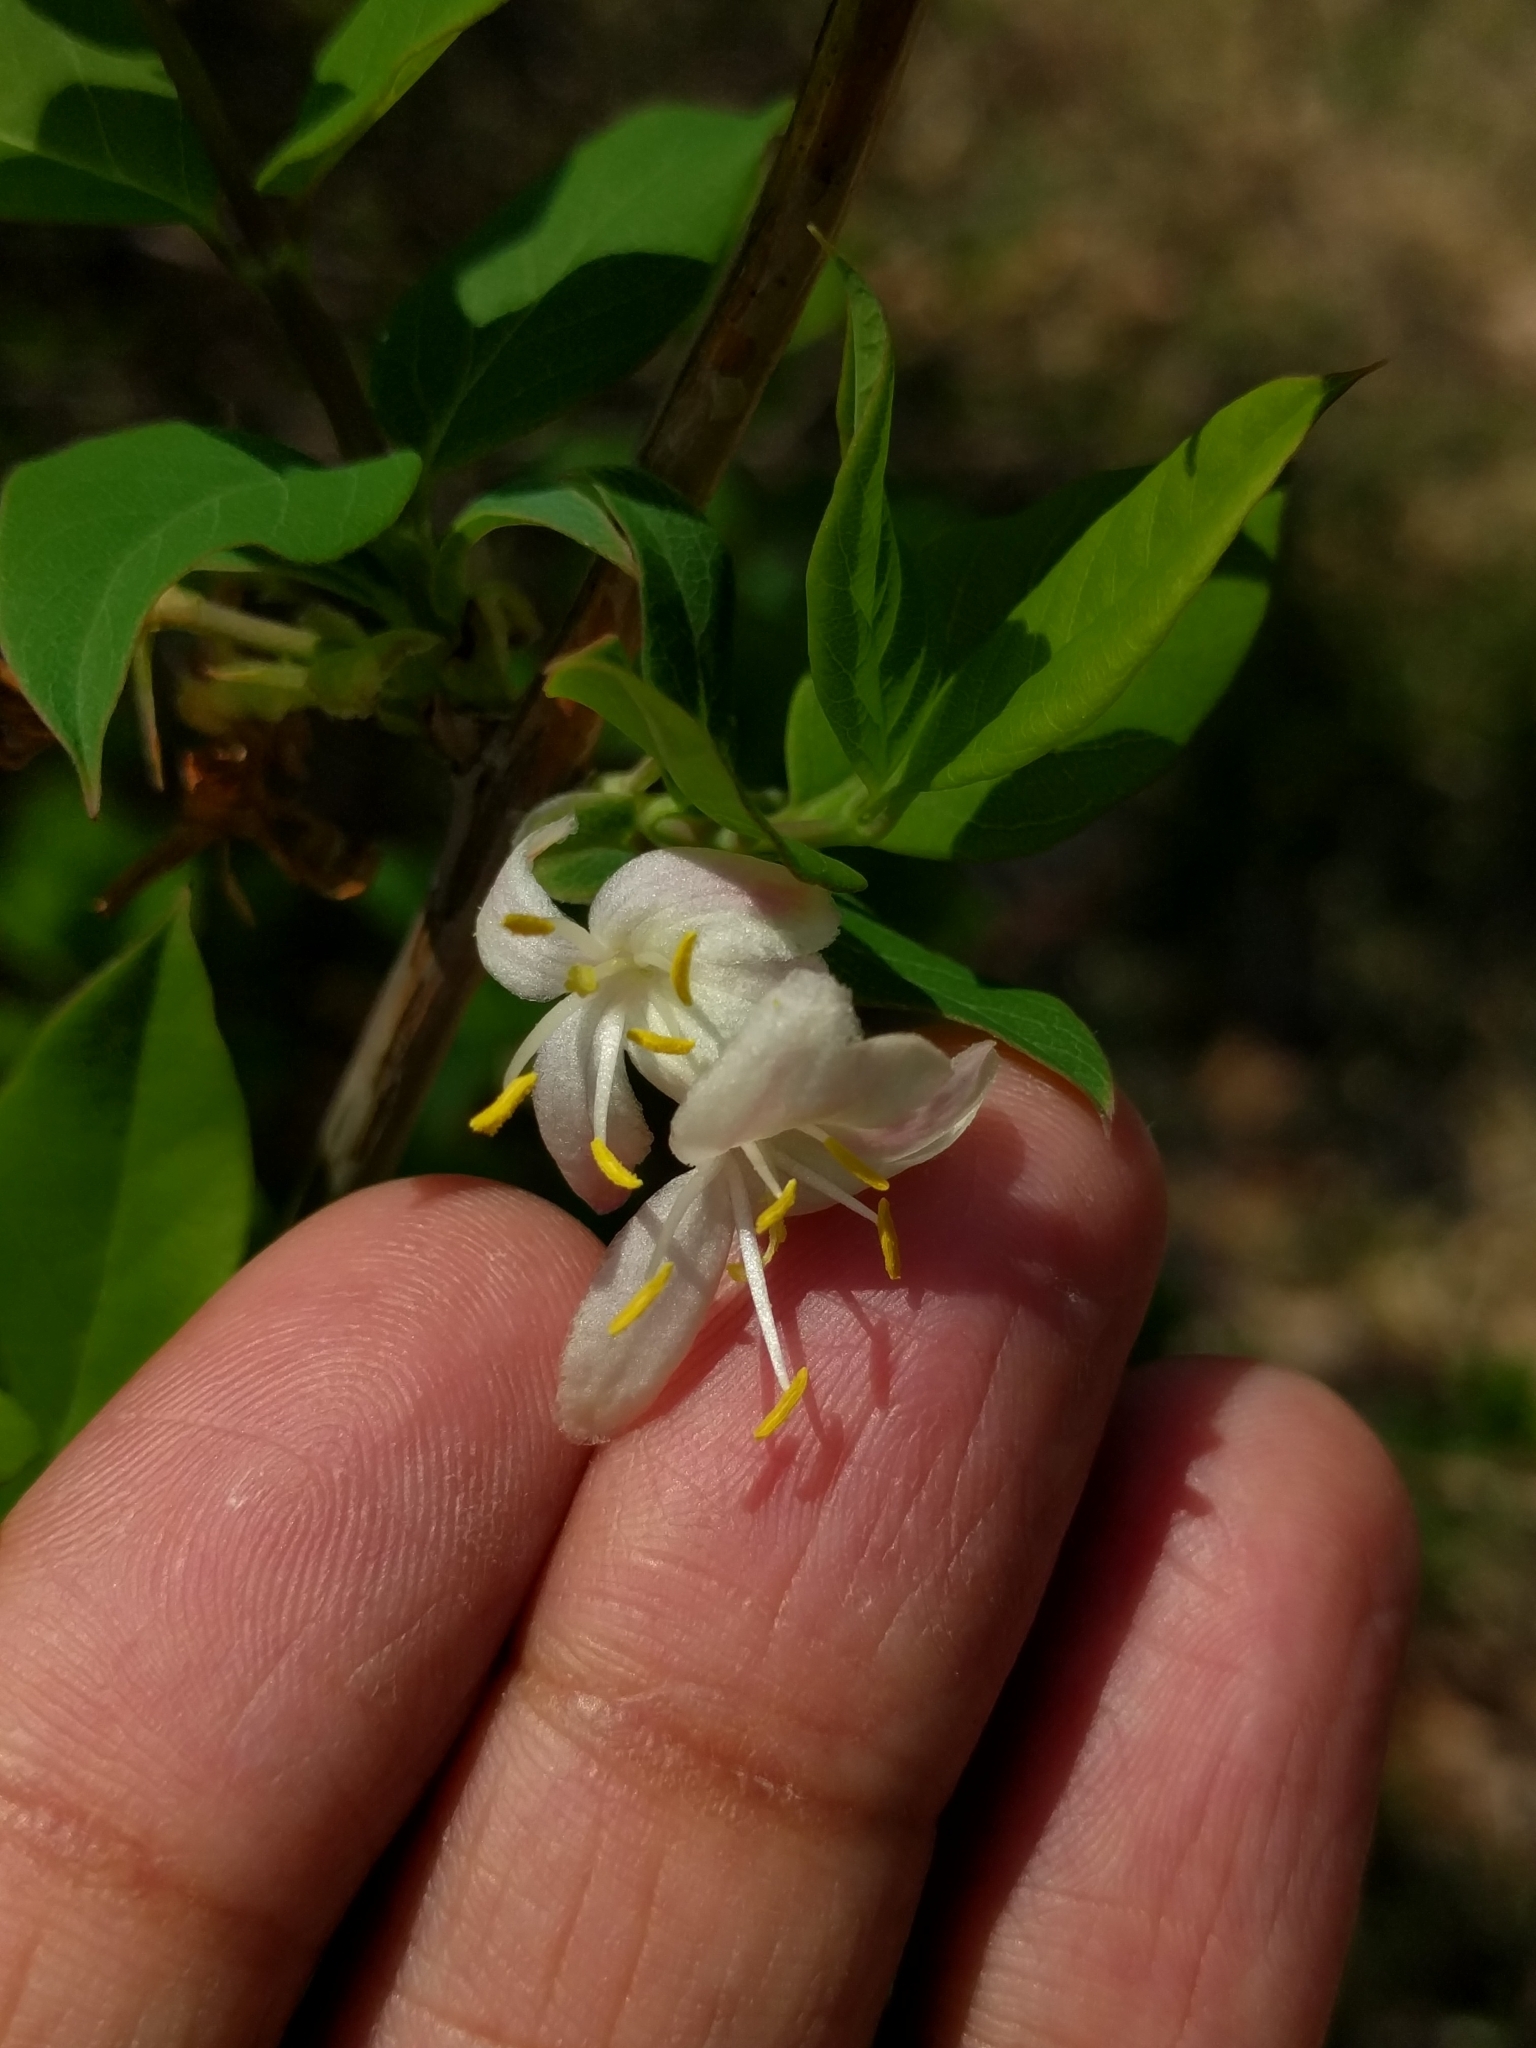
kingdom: Plantae
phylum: Tracheophyta
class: Magnoliopsida
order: Dipsacales
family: Caprifoliaceae
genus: Lonicera
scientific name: Lonicera fragrantissima
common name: Fragrant honeysuckle
